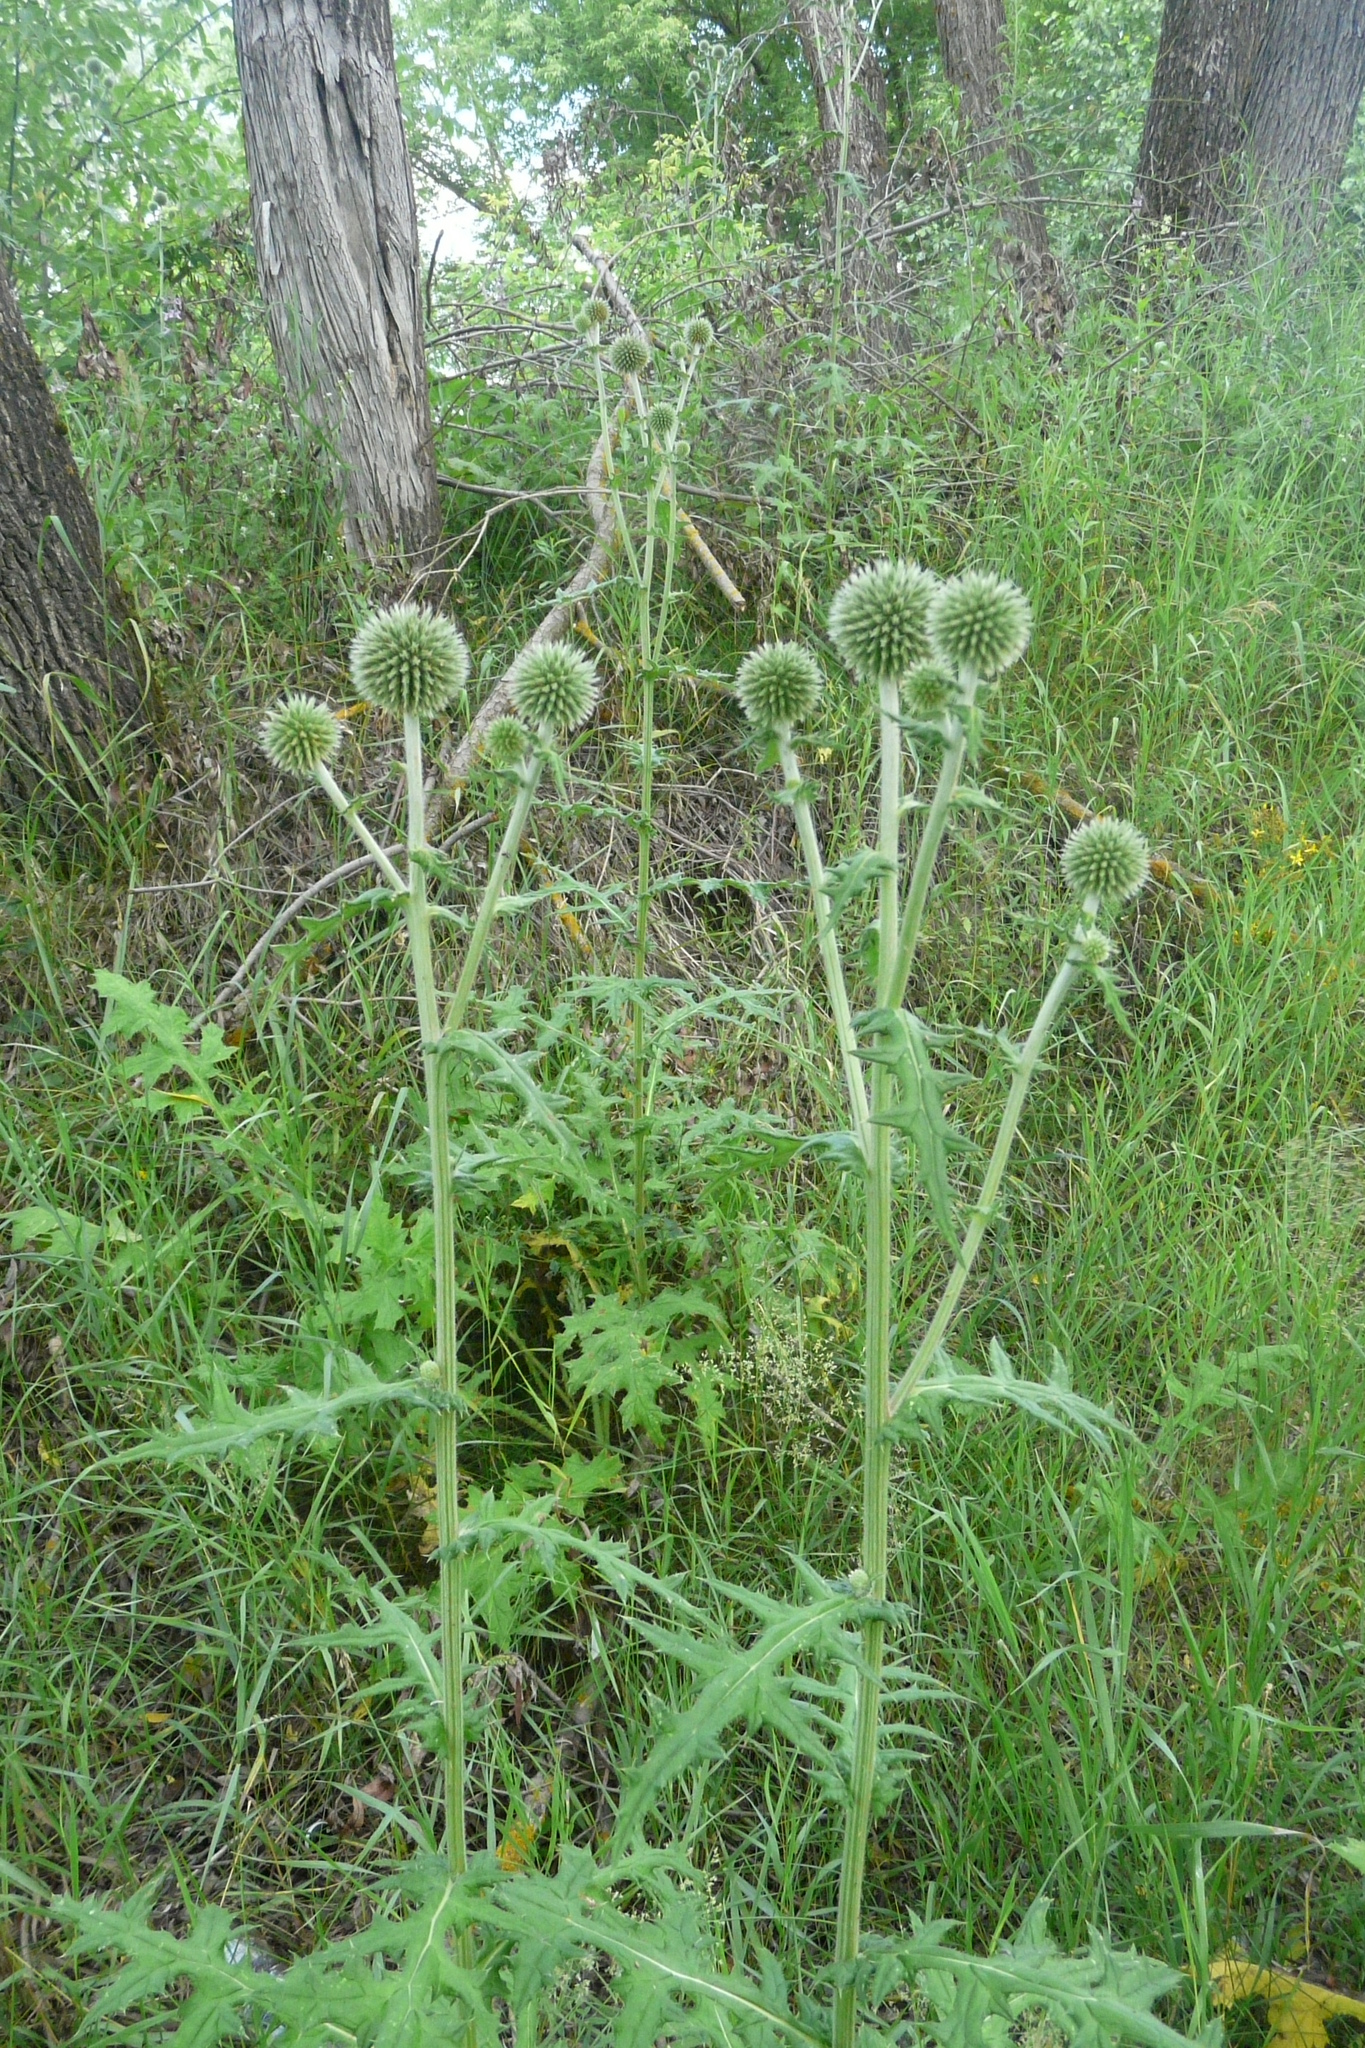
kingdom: Plantae
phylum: Tracheophyta
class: Magnoliopsida
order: Asterales
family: Asteraceae
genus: Echinops
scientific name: Echinops sphaerocephalus
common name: Glandular globe-thistle
